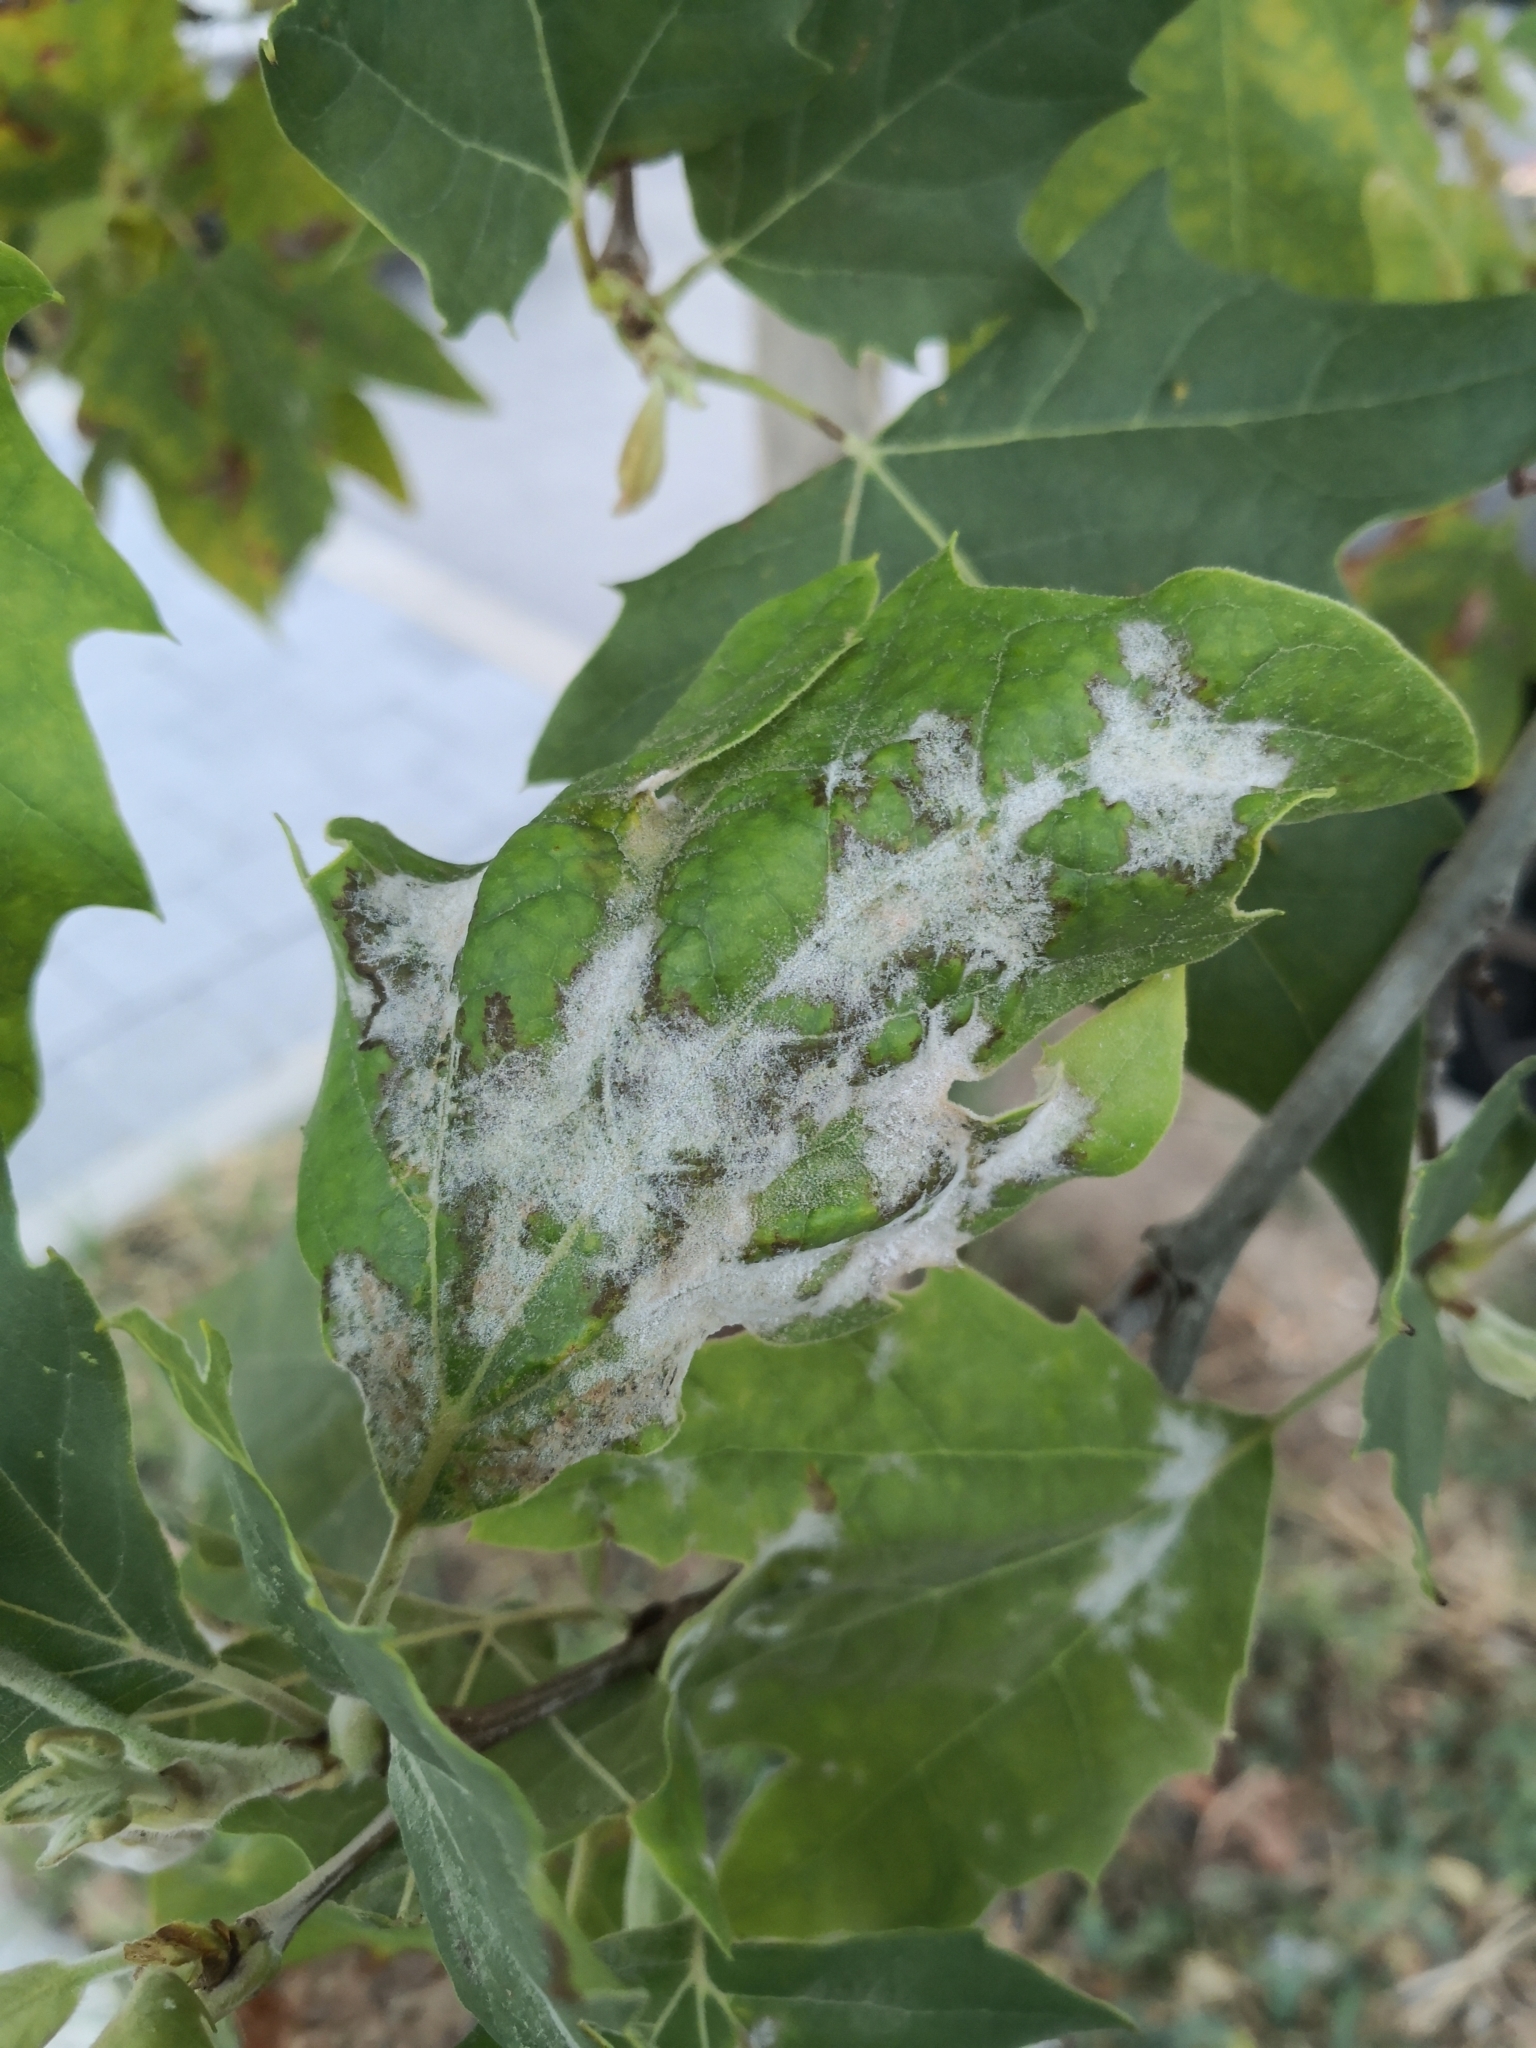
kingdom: Fungi
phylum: Ascomycota
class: Leotiomycetes
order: Helotiales
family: Erysiphaceae
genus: Erysiphe
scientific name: Erysiphe platani
